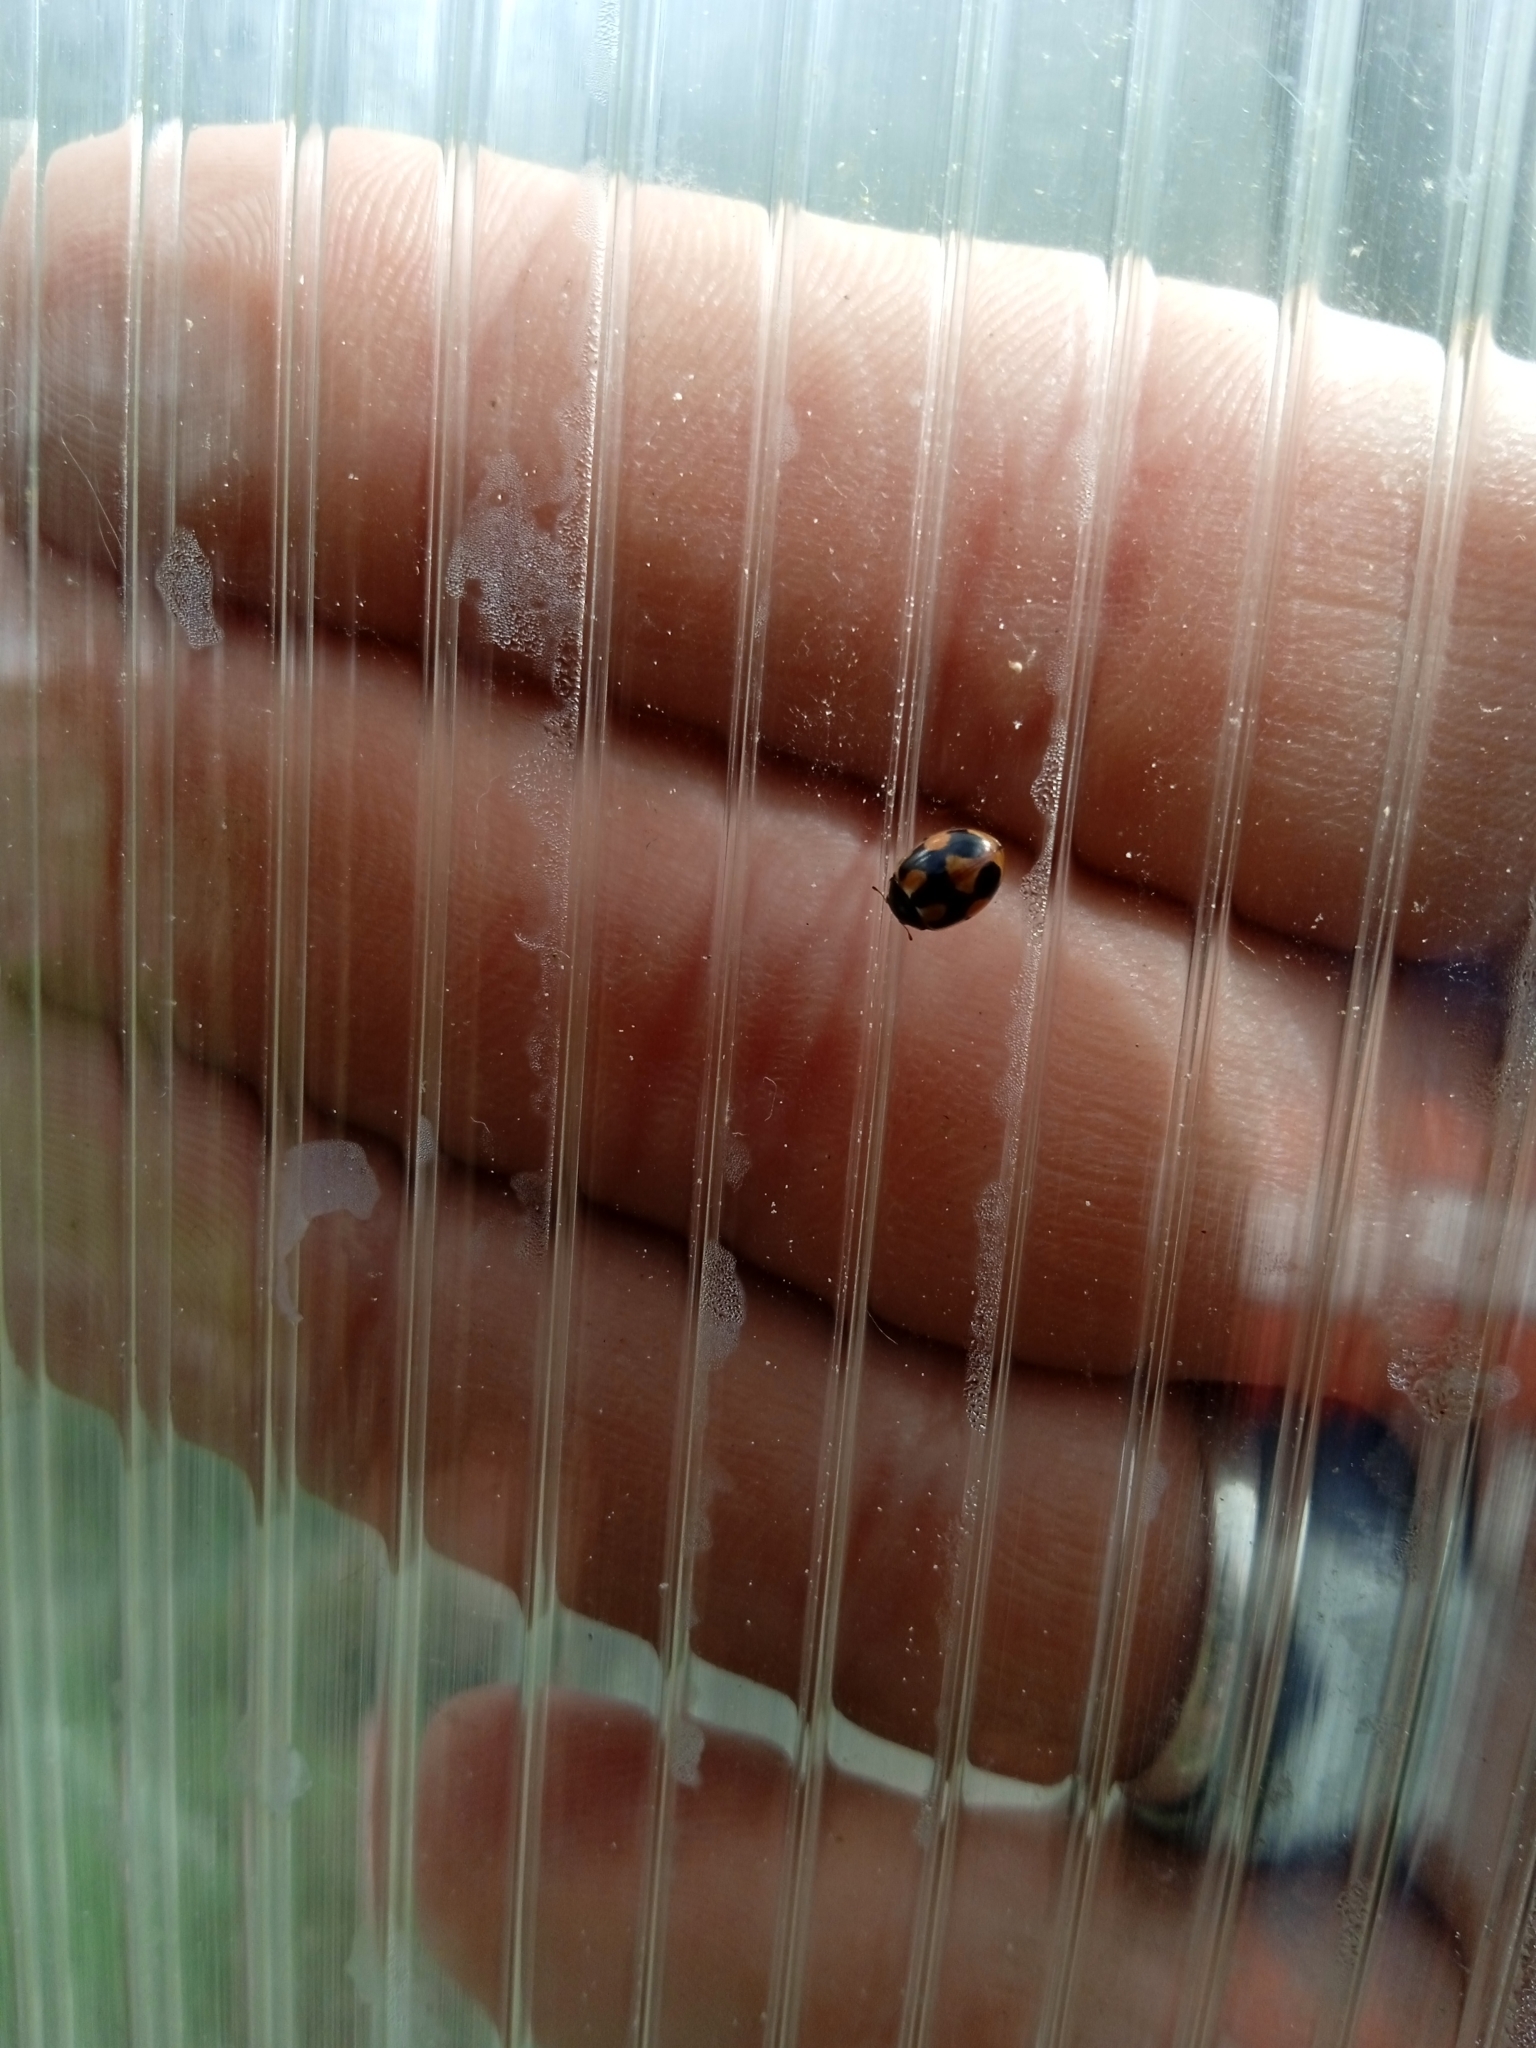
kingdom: Animalia
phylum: Arthropoda
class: Insecta
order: Coleoptera
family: Coccinellidae
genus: Coccinella
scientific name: Coccinella hieroglyphica
